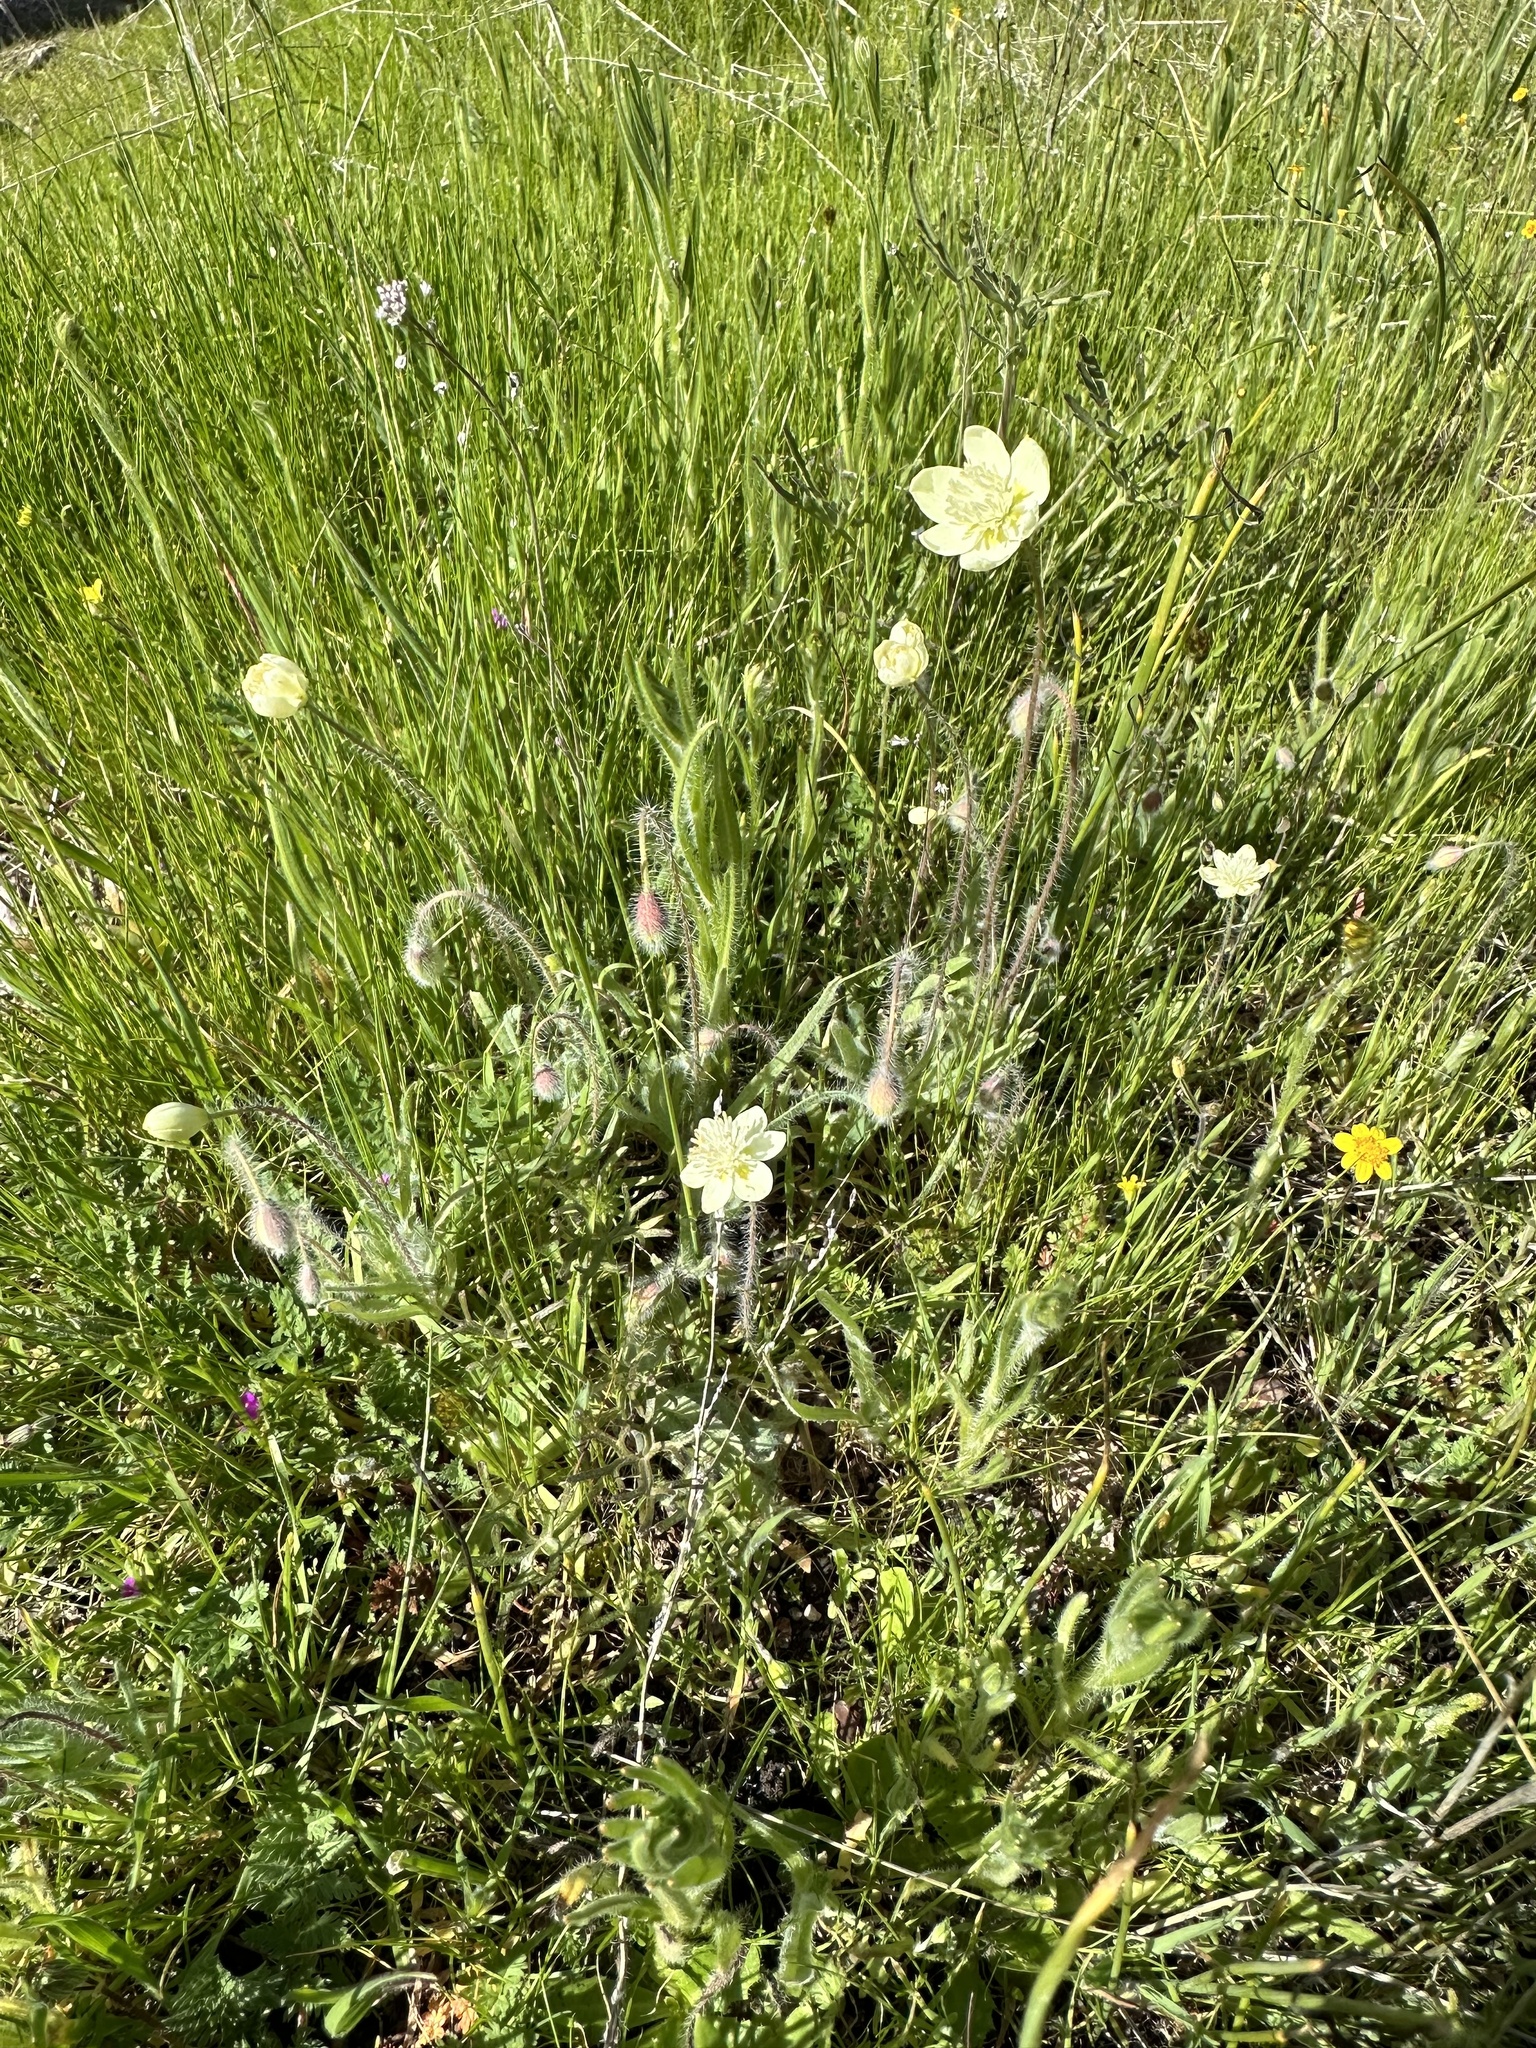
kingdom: Plantae
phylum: Tracheophyta
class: Magnoliopsida
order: Ranunculales
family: Papaveraceae
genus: Platystemon
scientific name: Platystemon californicus
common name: Cream-cups
